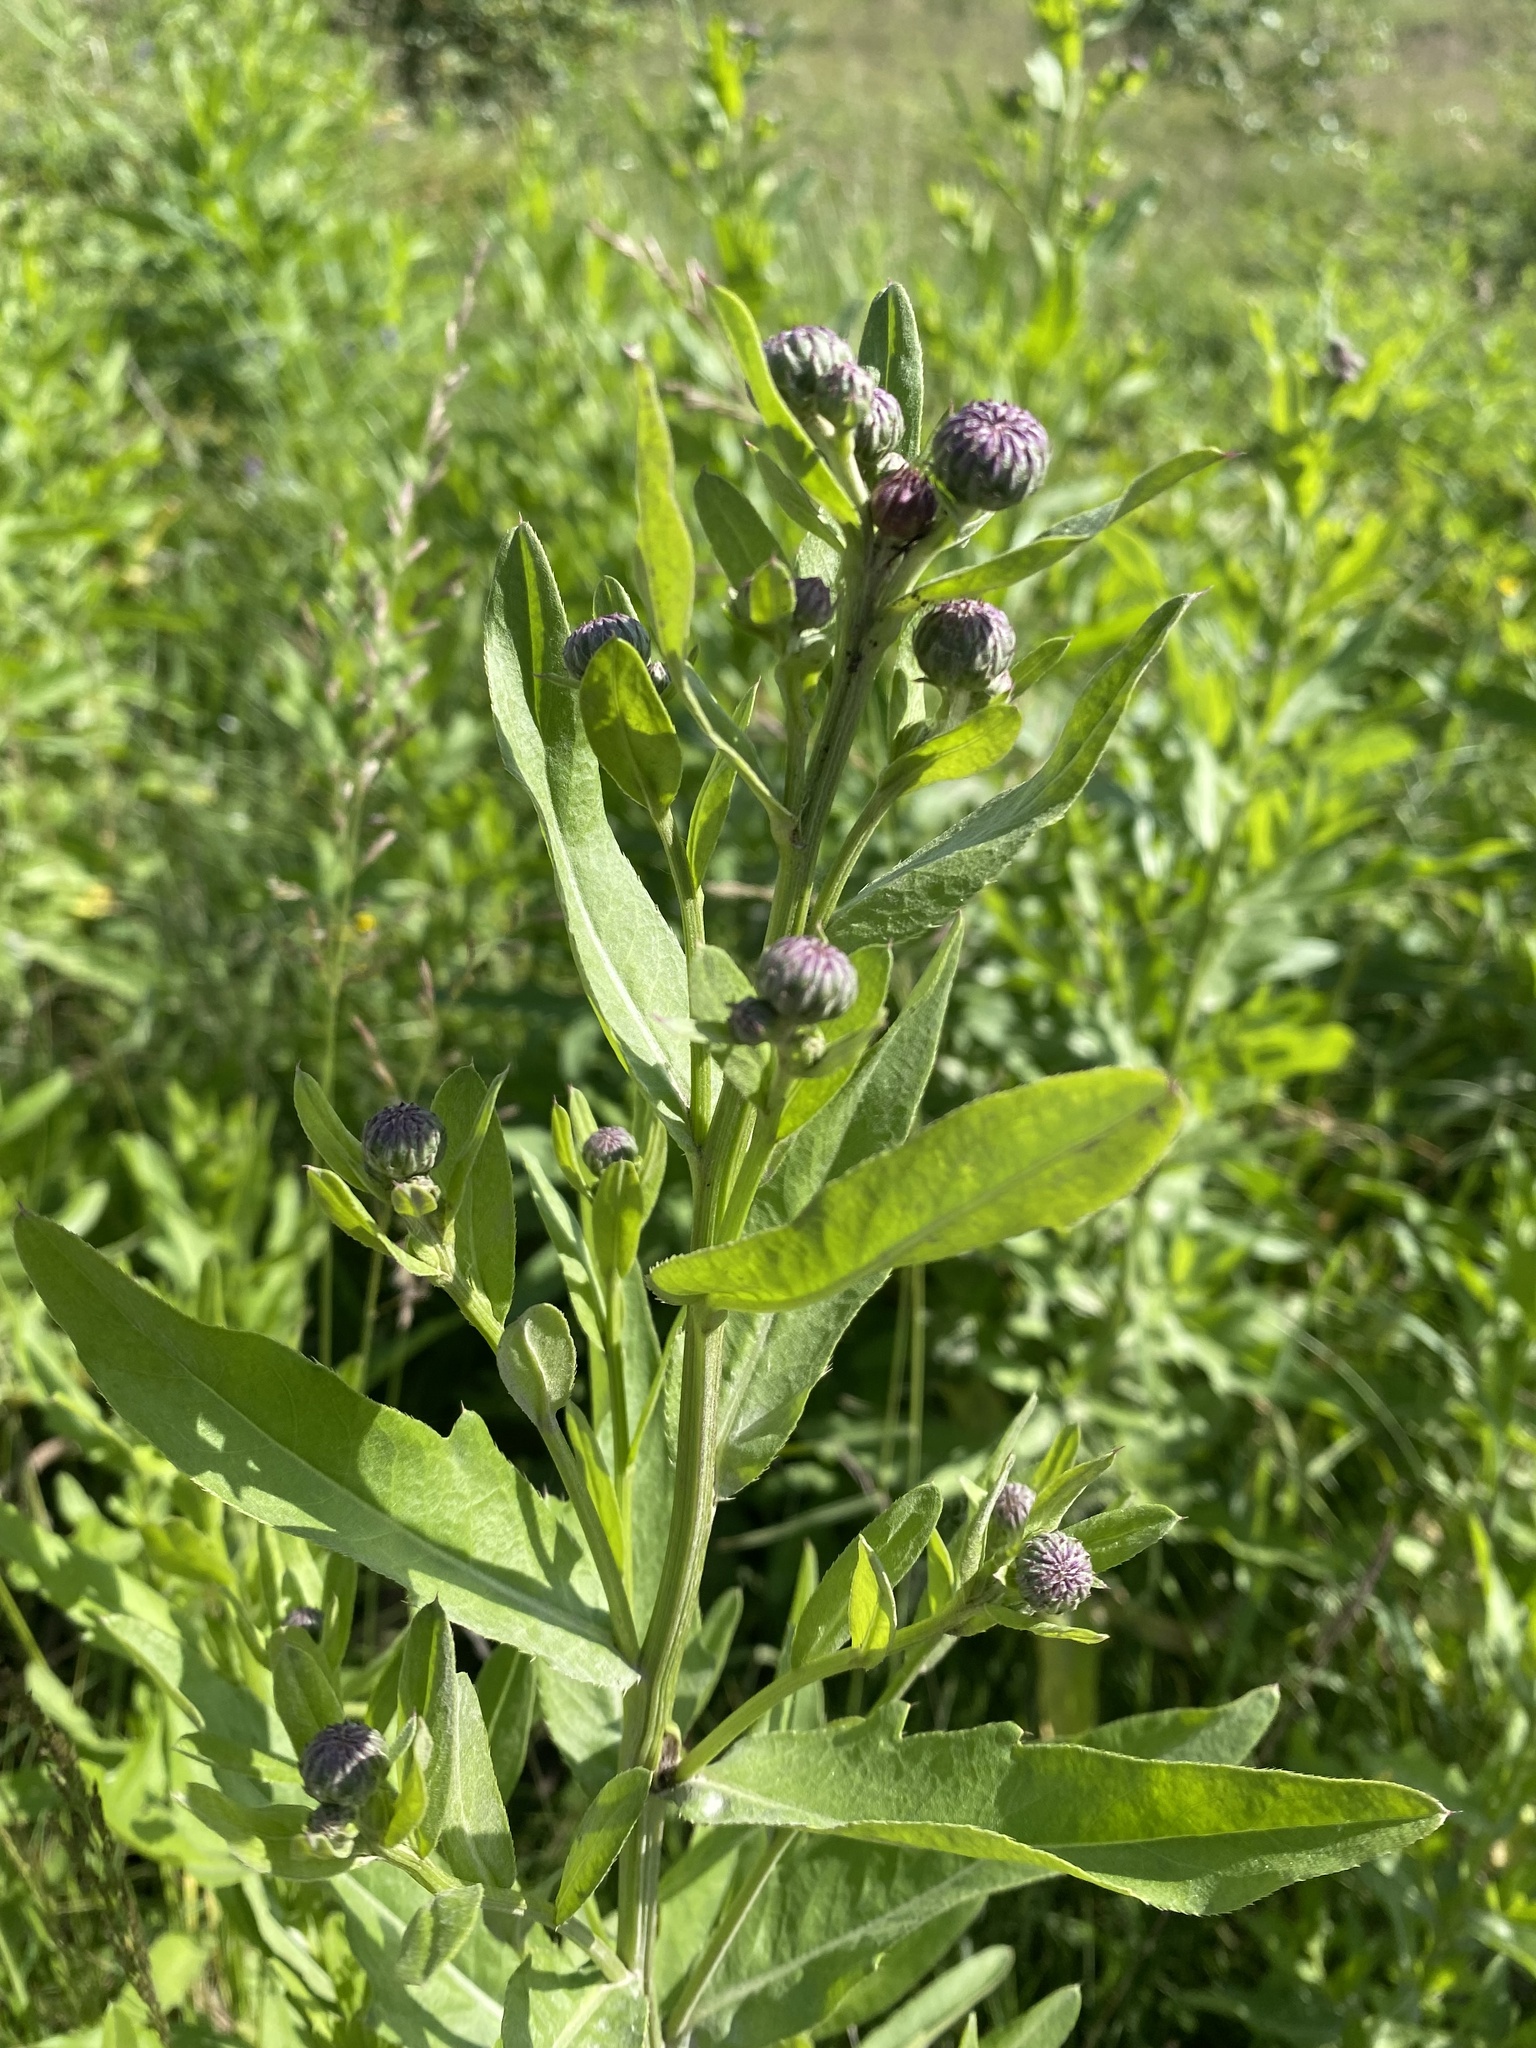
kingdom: Plantae
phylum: Tracheophyta
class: Magnoliopsida
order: Asterales
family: Asteraceae
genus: Cirsium
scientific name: Cirsium arvense
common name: Creeping thistle
